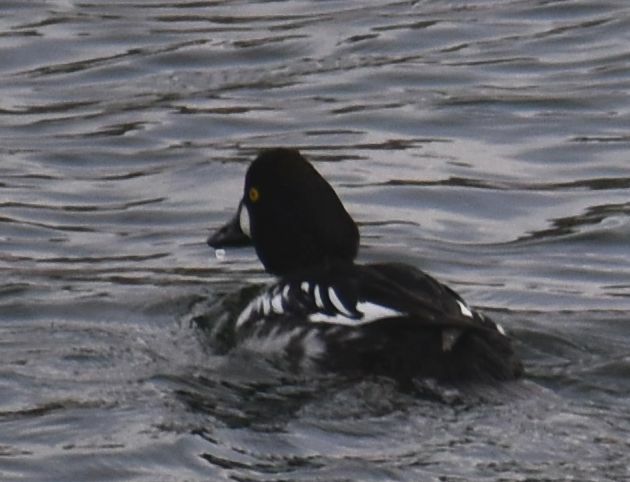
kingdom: Animalia
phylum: Chordata
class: Aves
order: Anseriformes
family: Anatidae
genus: Bucephala
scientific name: Bucephala clangula
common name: Common goldeneye
